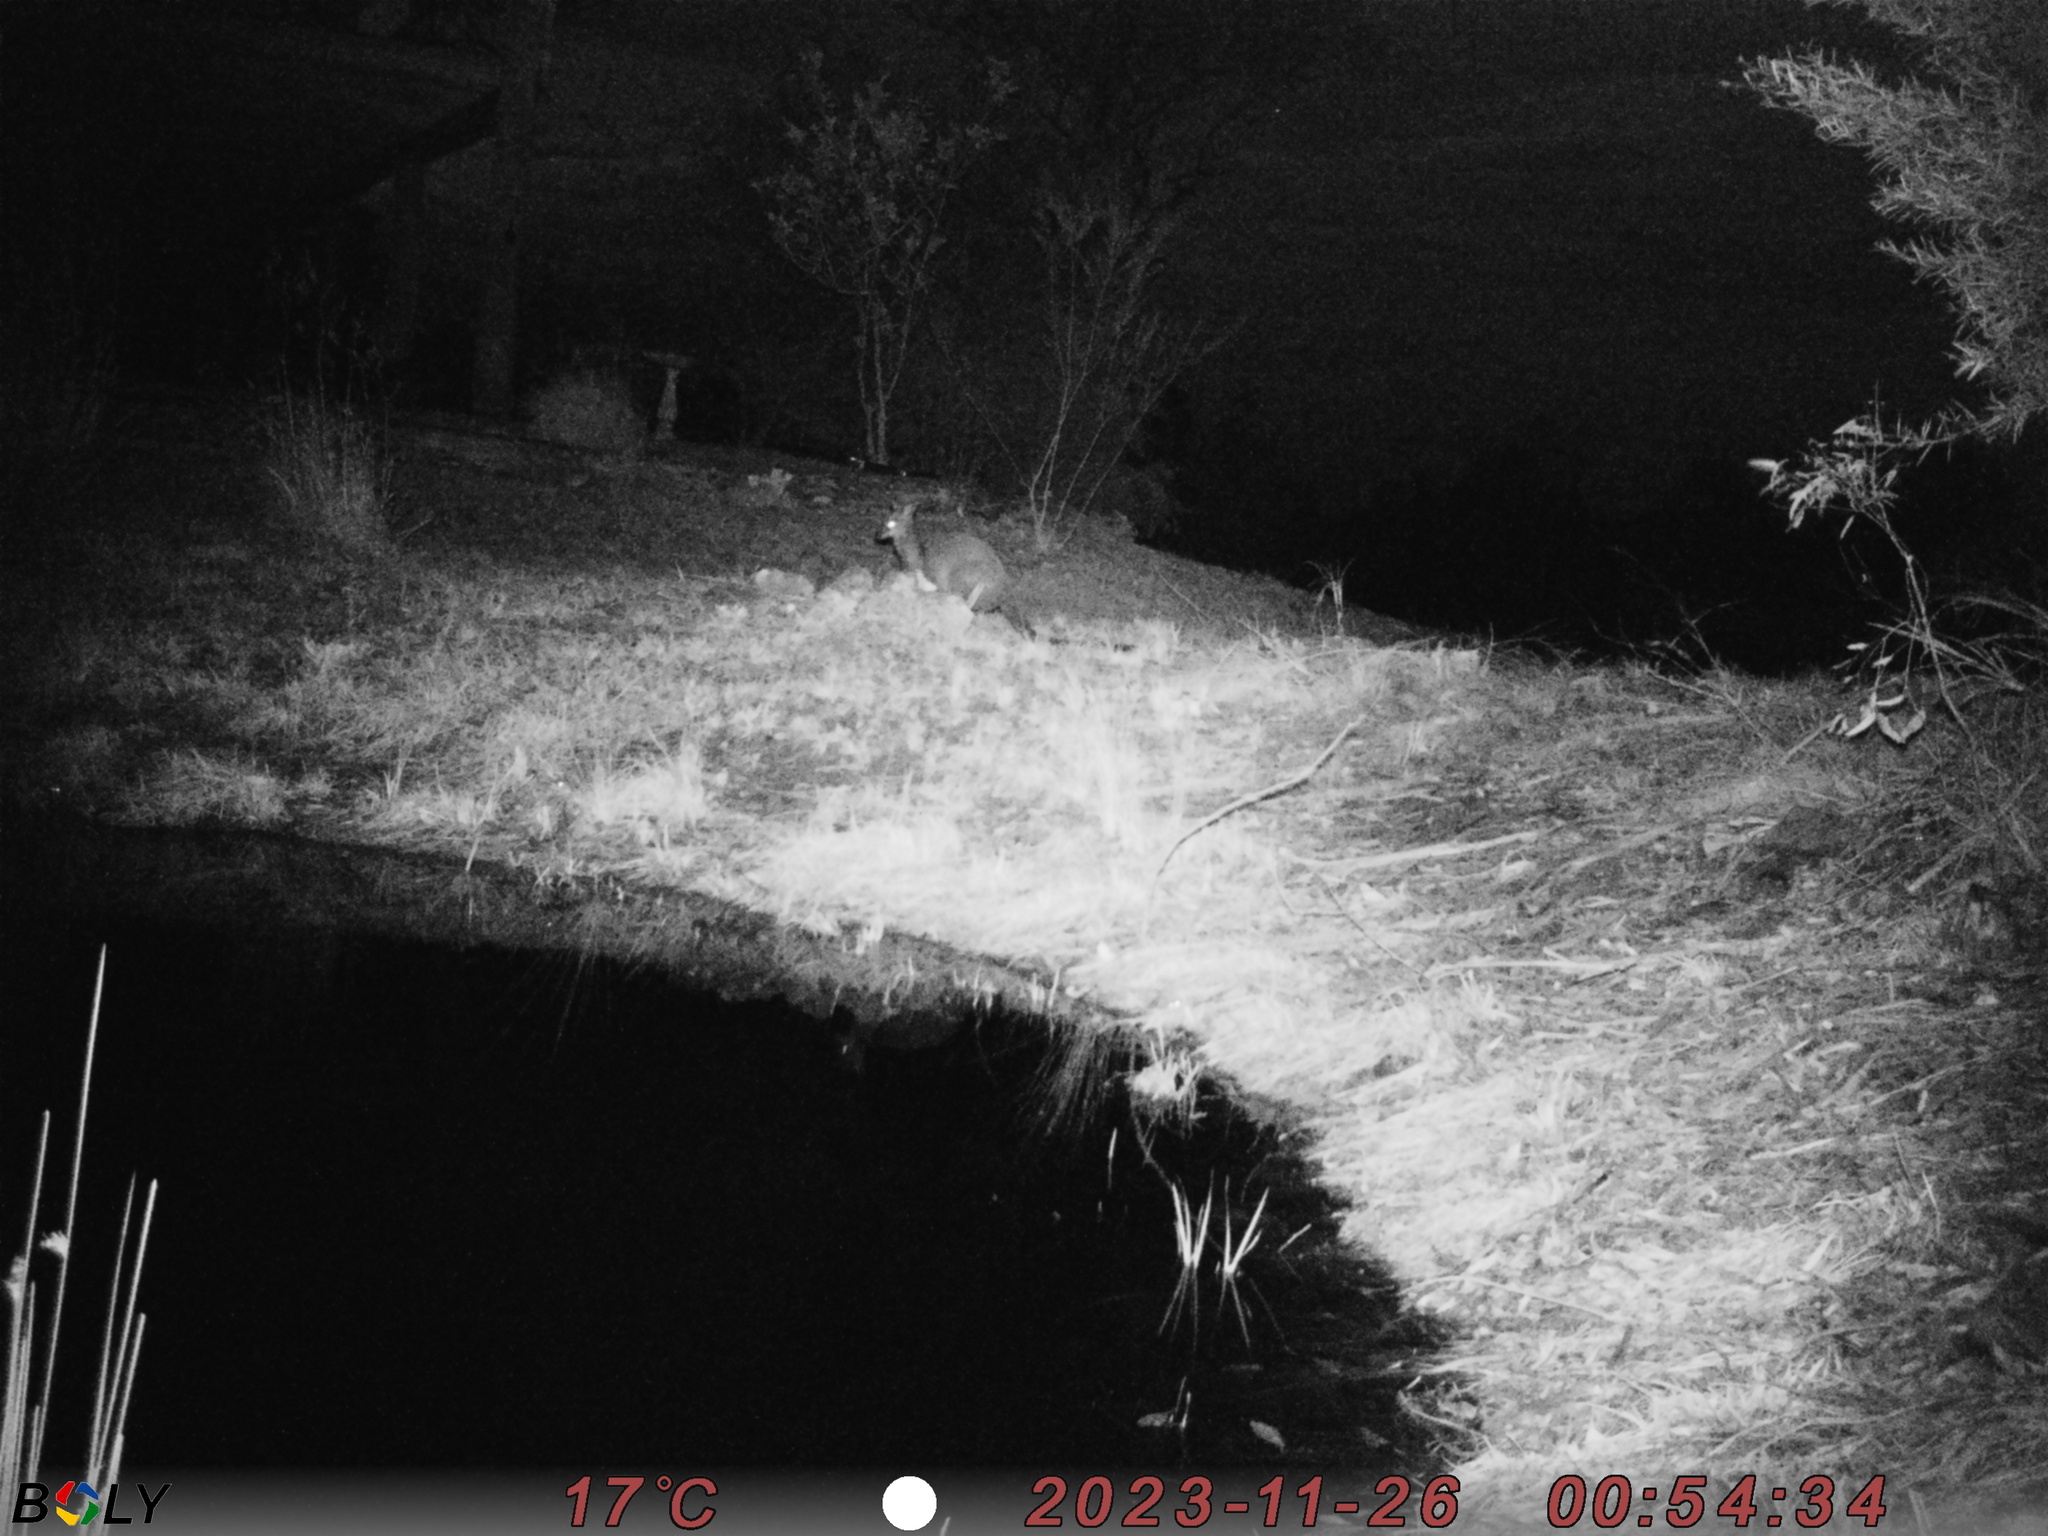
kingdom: Animalia
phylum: Chordata
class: Mammalia
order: Diprotodontia
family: Macropodidae
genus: Wallabia
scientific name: Wallabia bicolor
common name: Swamp wallaby
